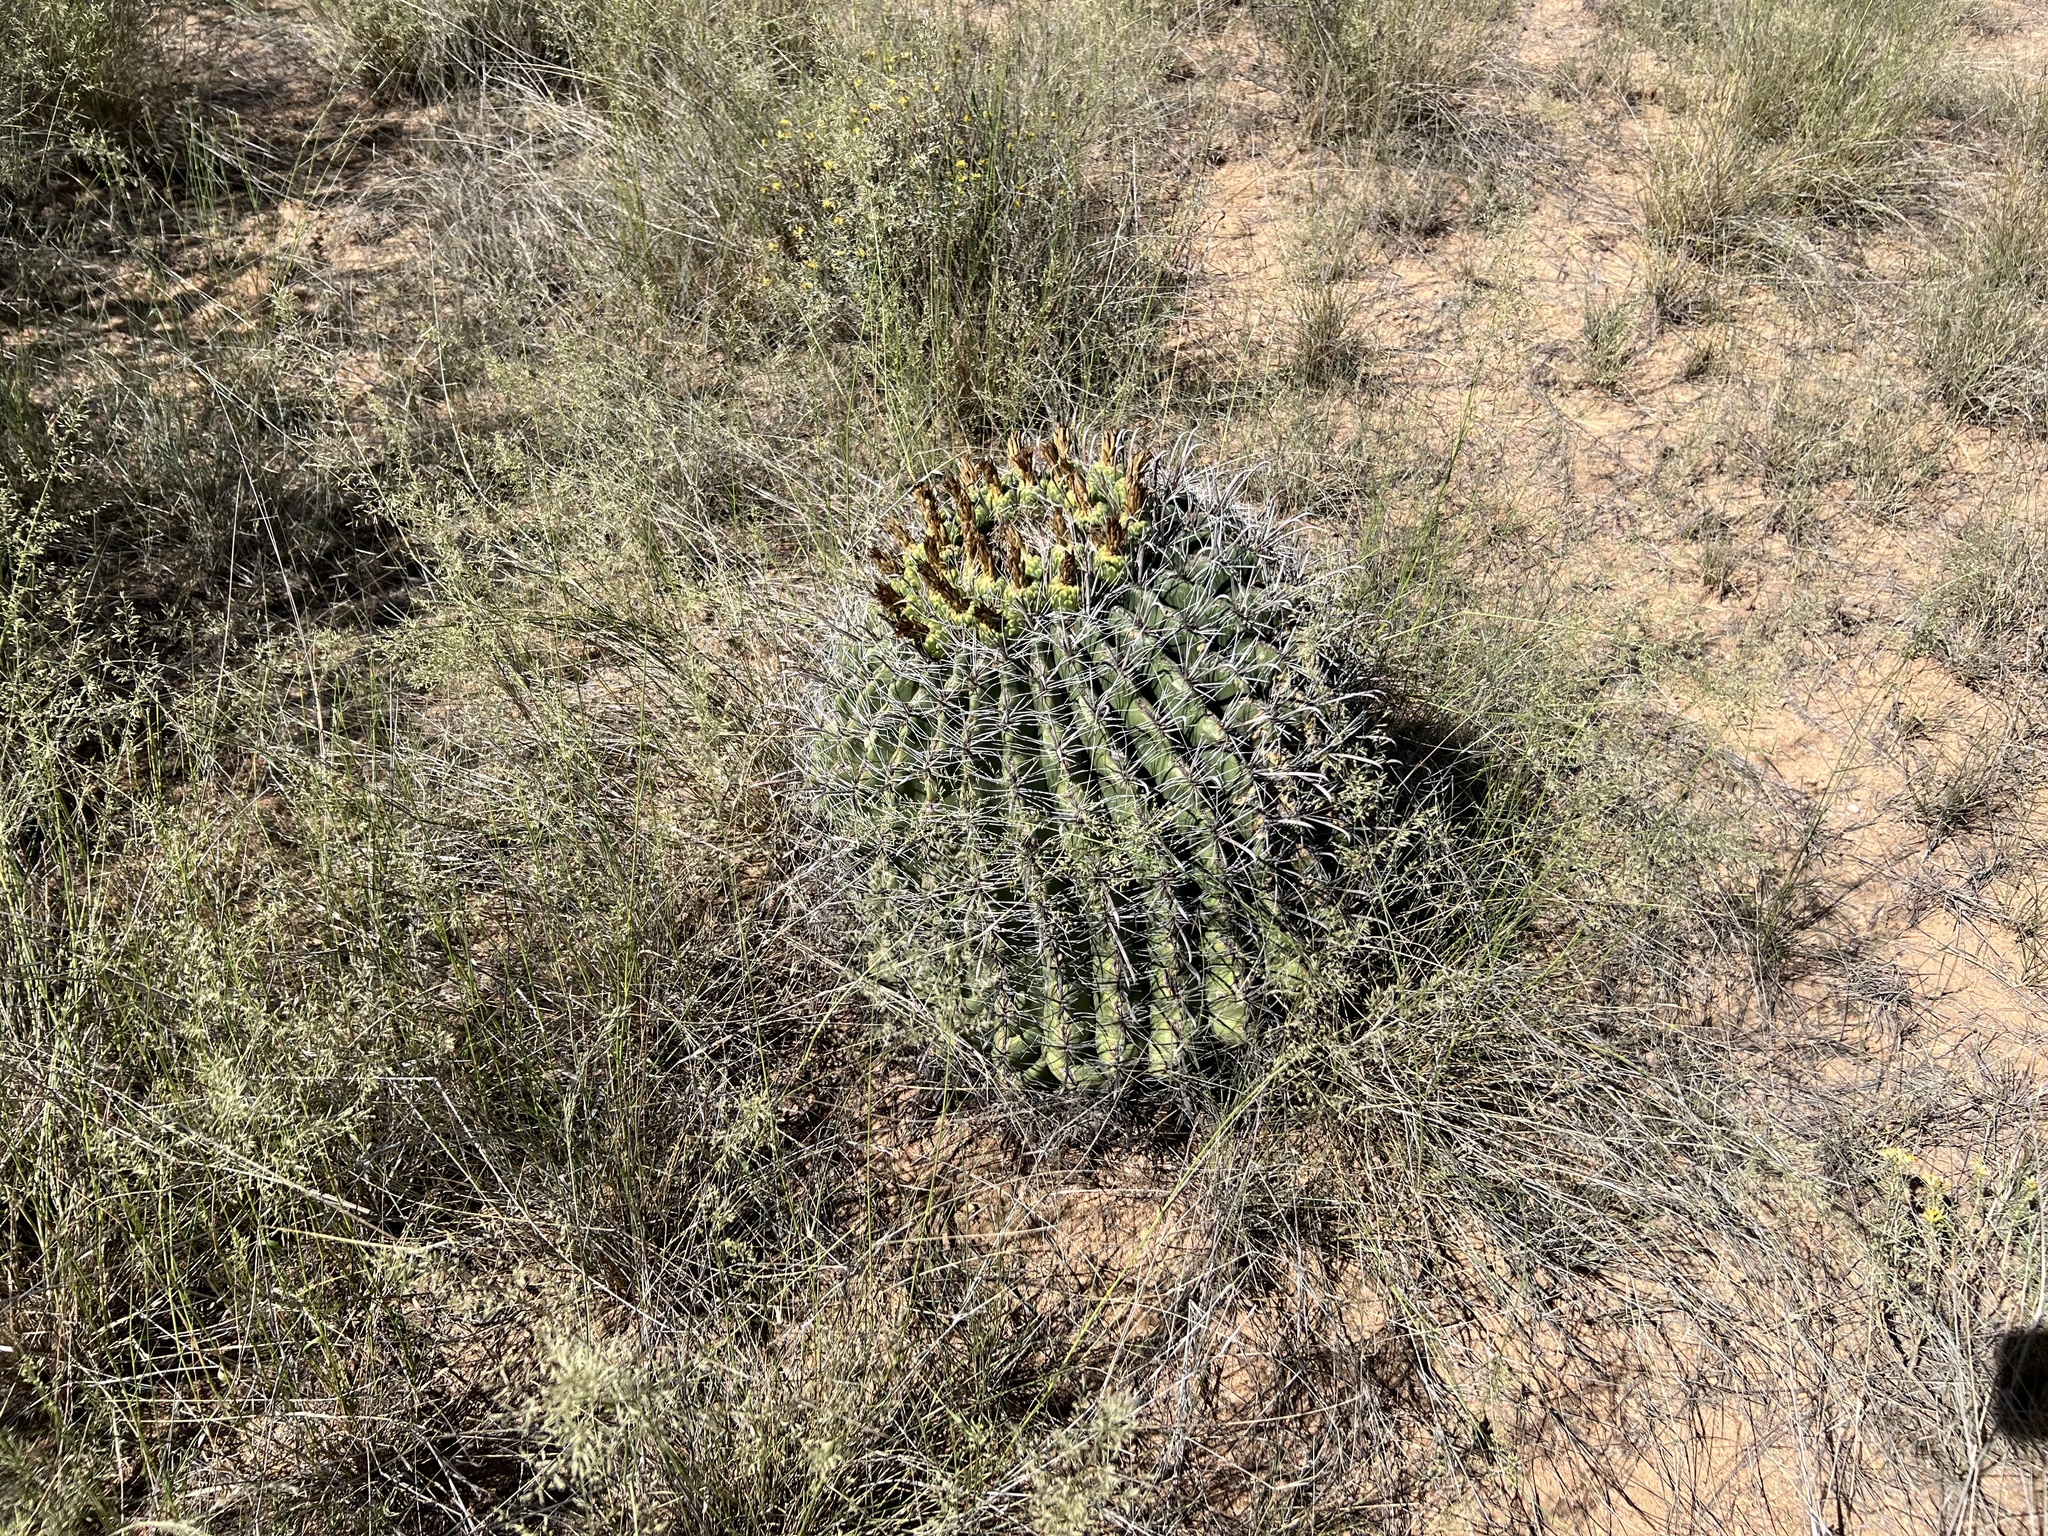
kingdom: Plantae
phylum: Tracheophyta
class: Magnoliopsida
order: Caryophyllales
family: Cactaceae
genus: Ferocactus
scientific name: Ferocactus wislizeni
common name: Candy barrel cactus
